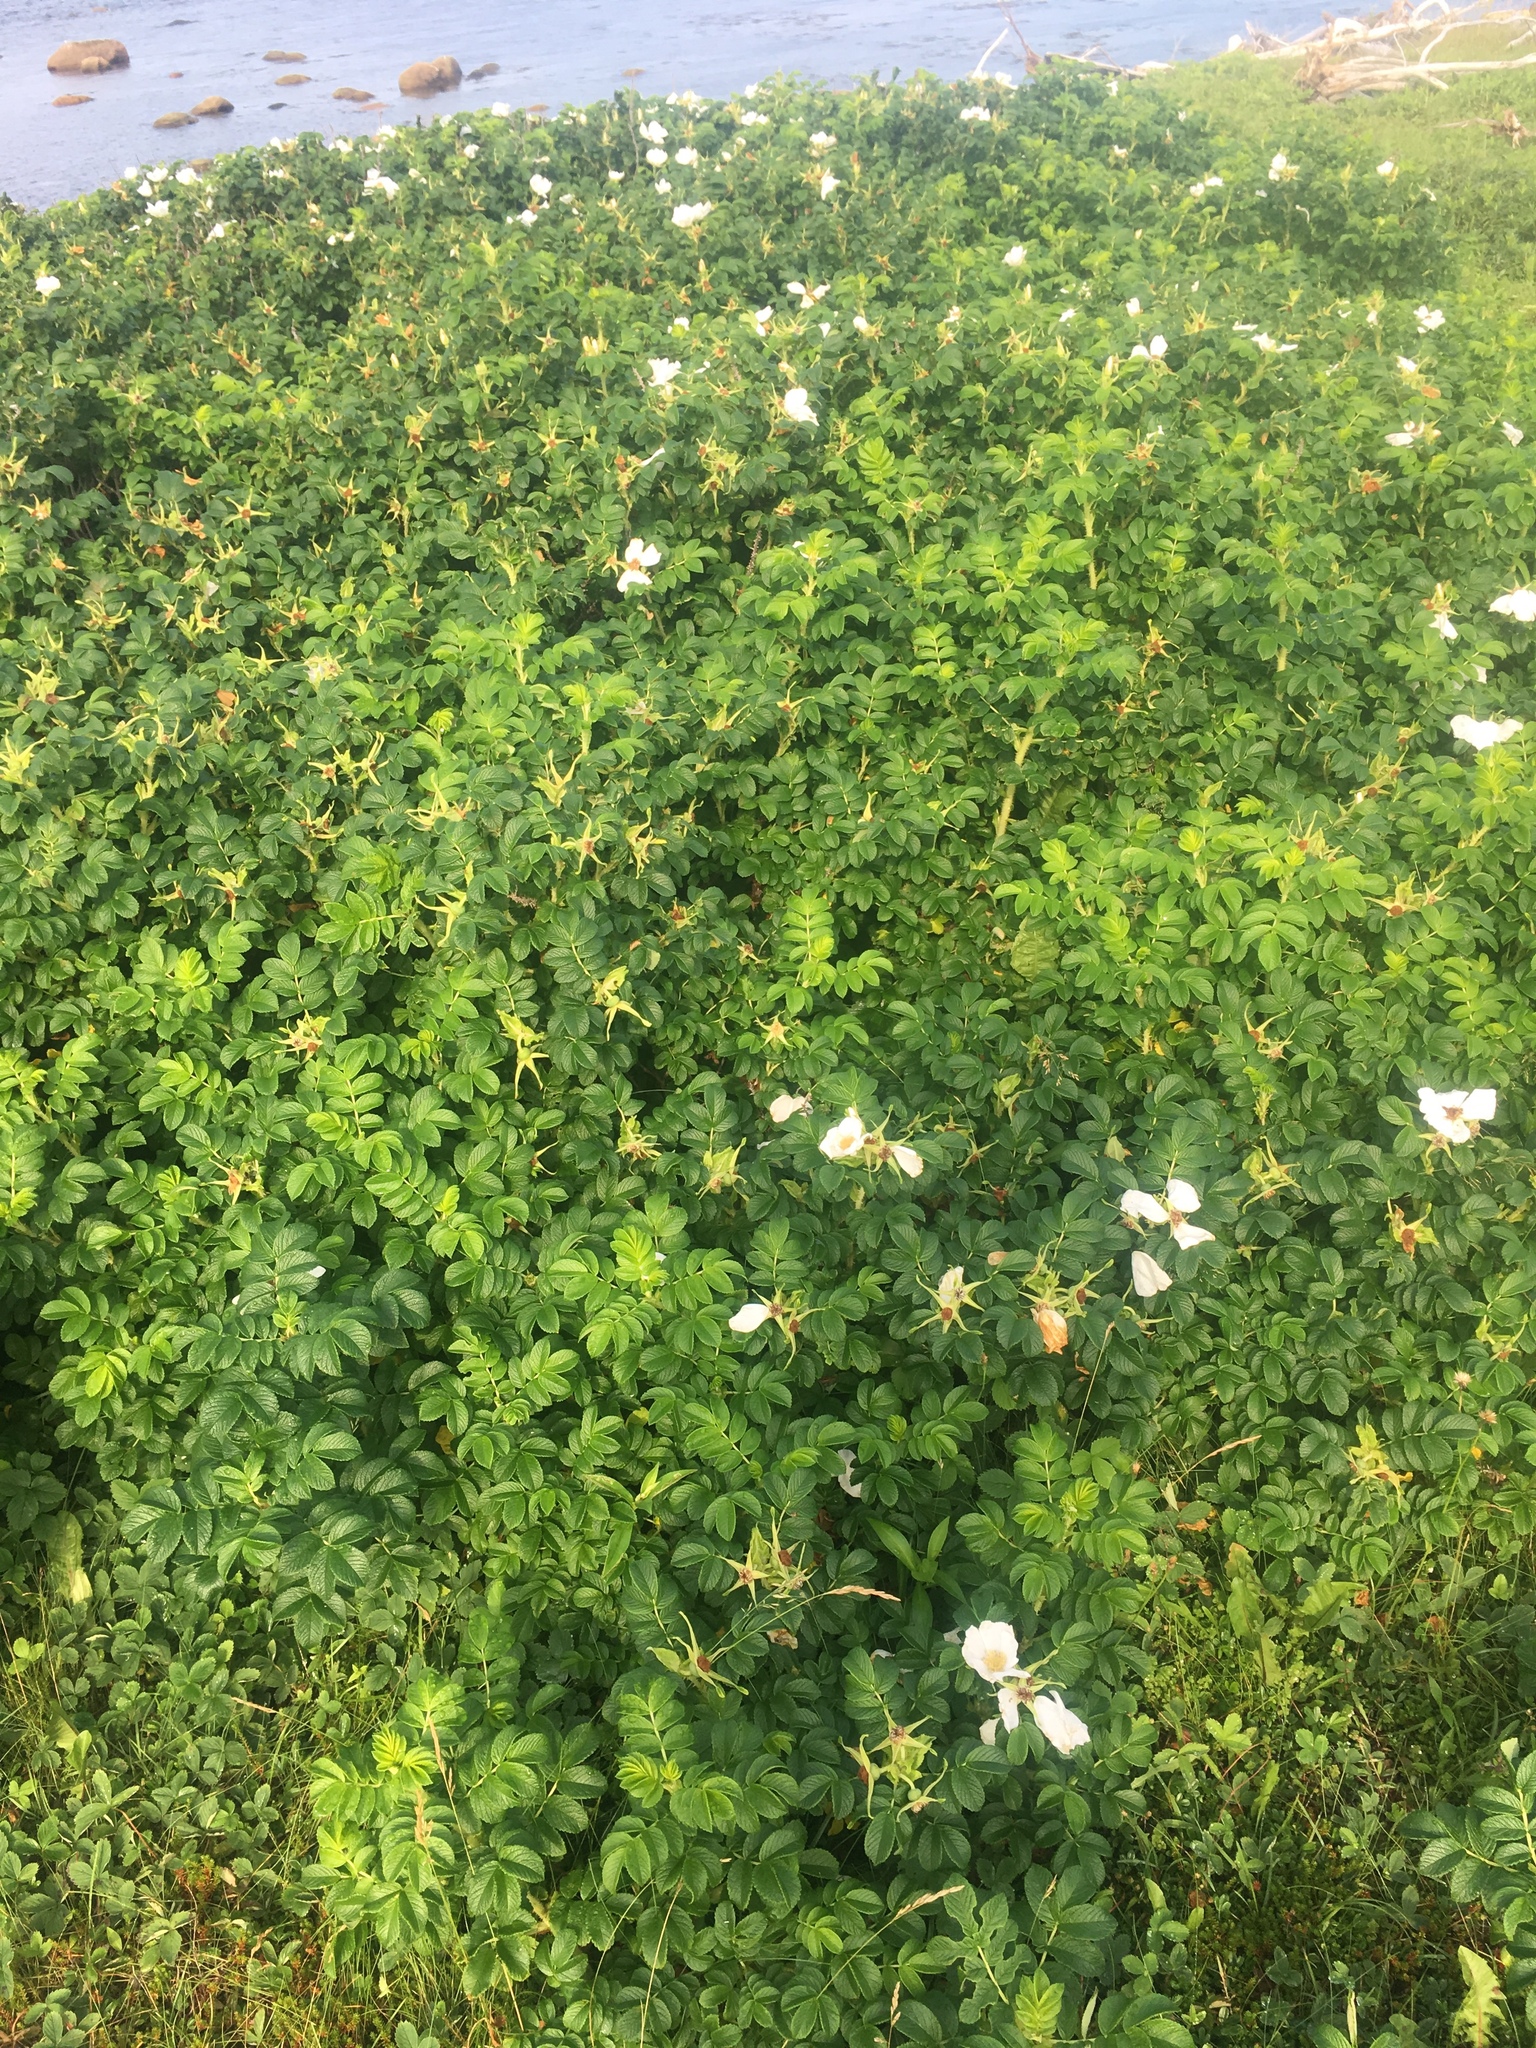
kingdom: Plantae
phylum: Tracheophyta
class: Magnoliopsida
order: Rosales
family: Rosaceae
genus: Rosa
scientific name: Rosa rugosa
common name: Japanese rose
